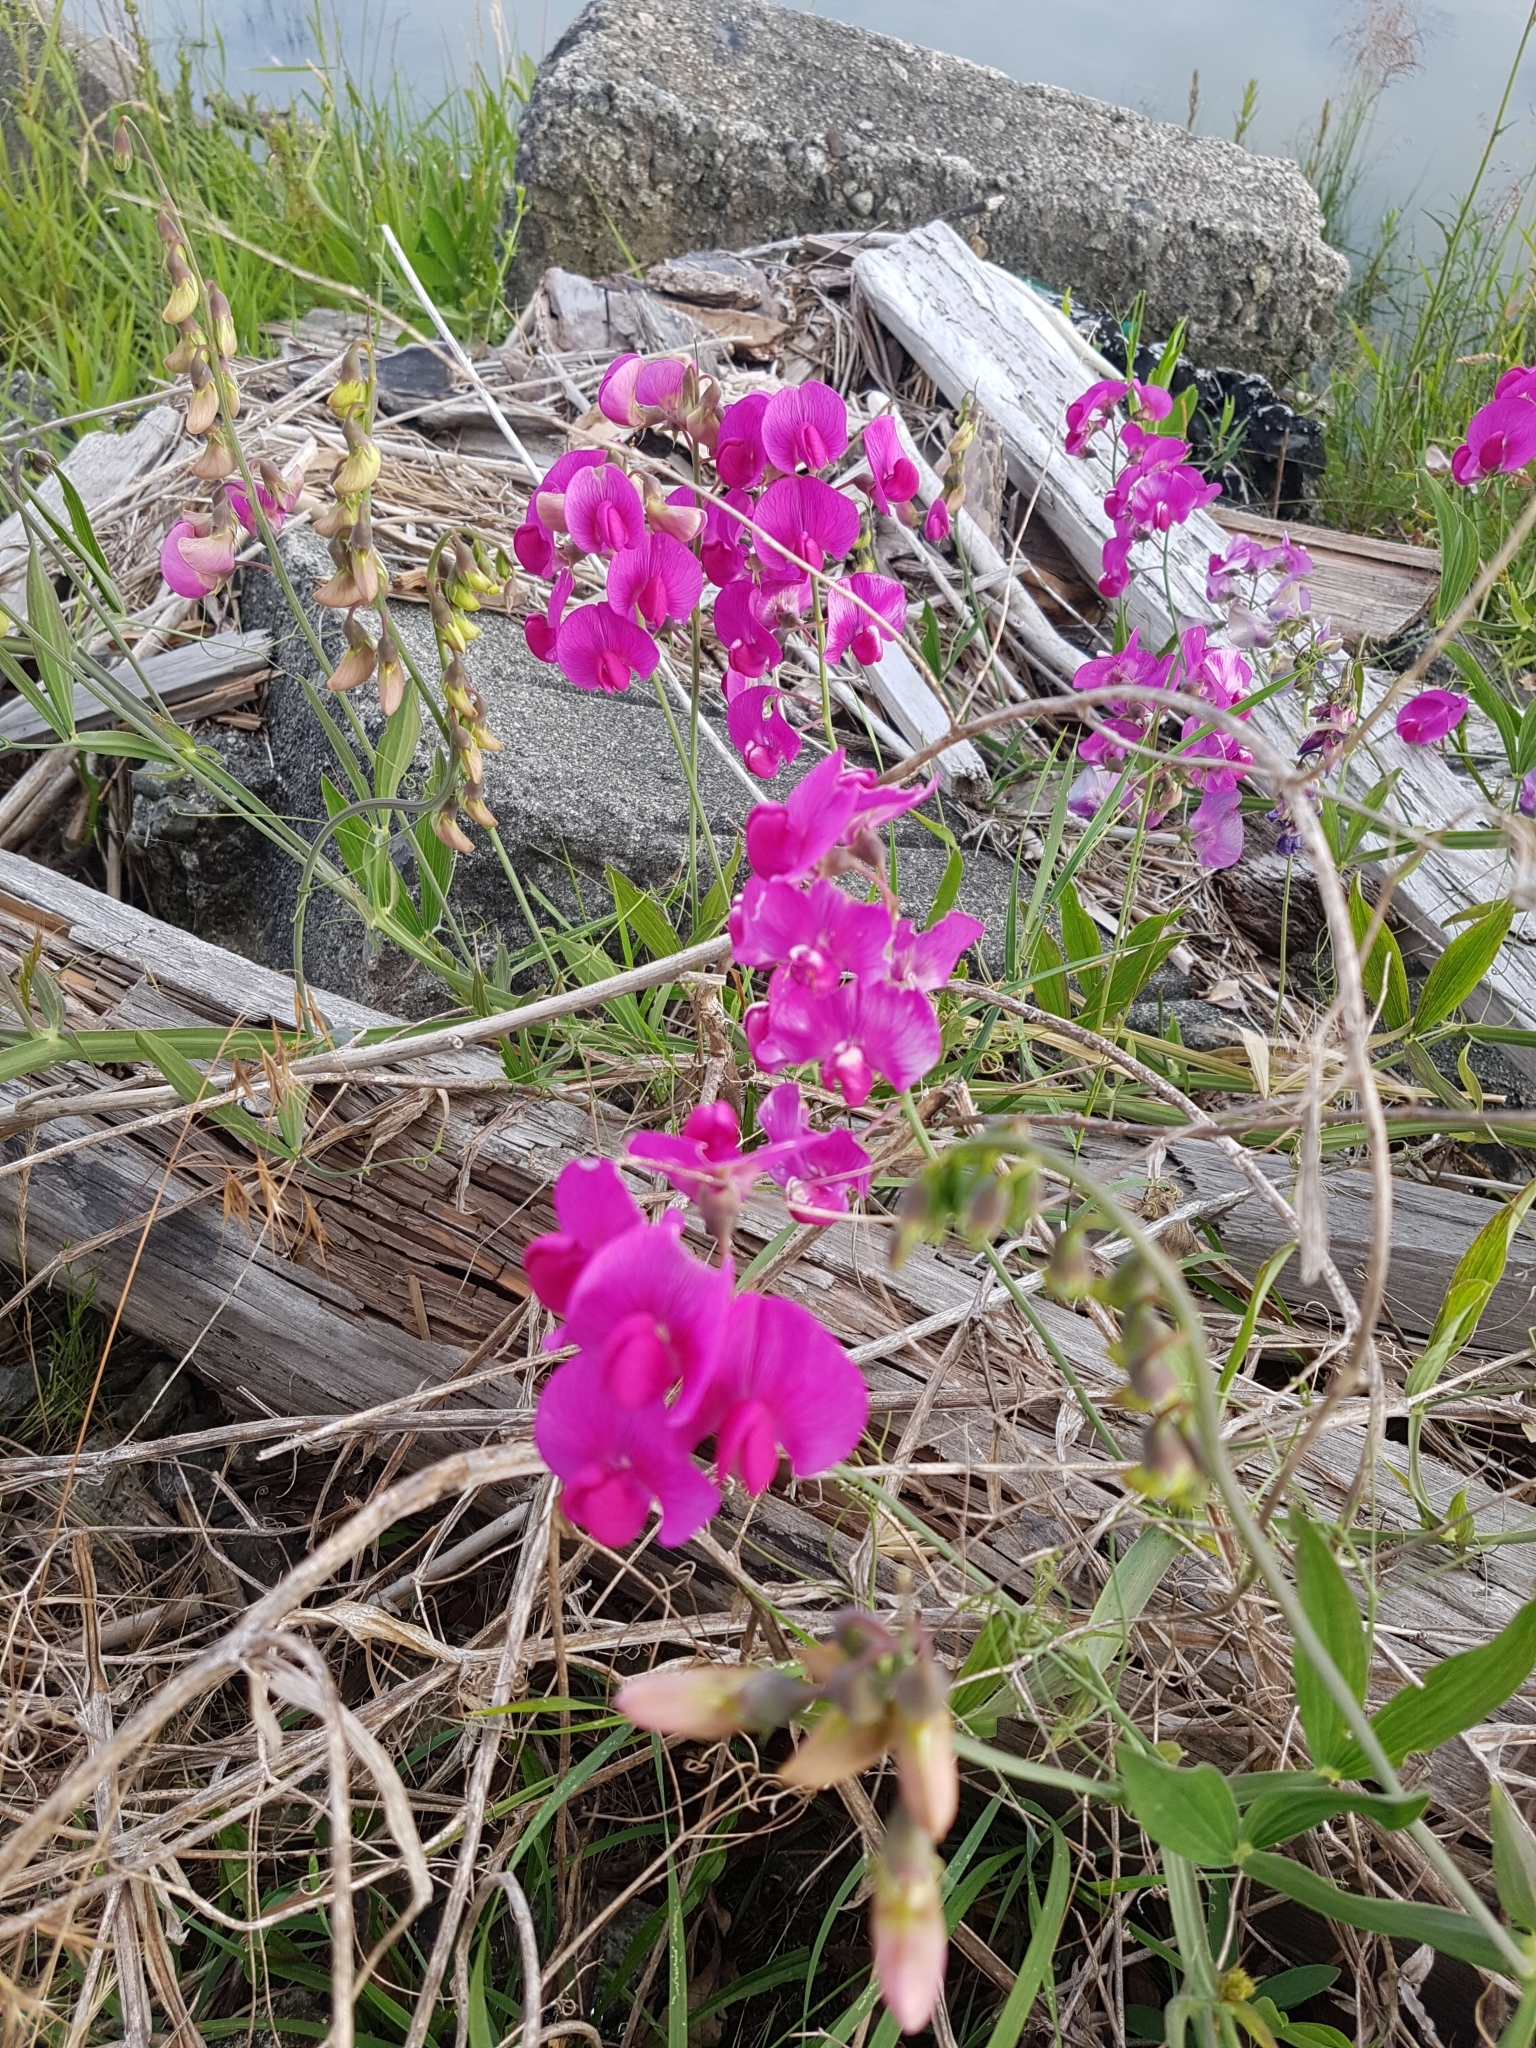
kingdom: Plantae
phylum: Tracheophyta
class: Magnoliopsida
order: Fabales
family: Fabaceae
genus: Lathyrus
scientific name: Lathyrus latifolius
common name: Perennial pea
